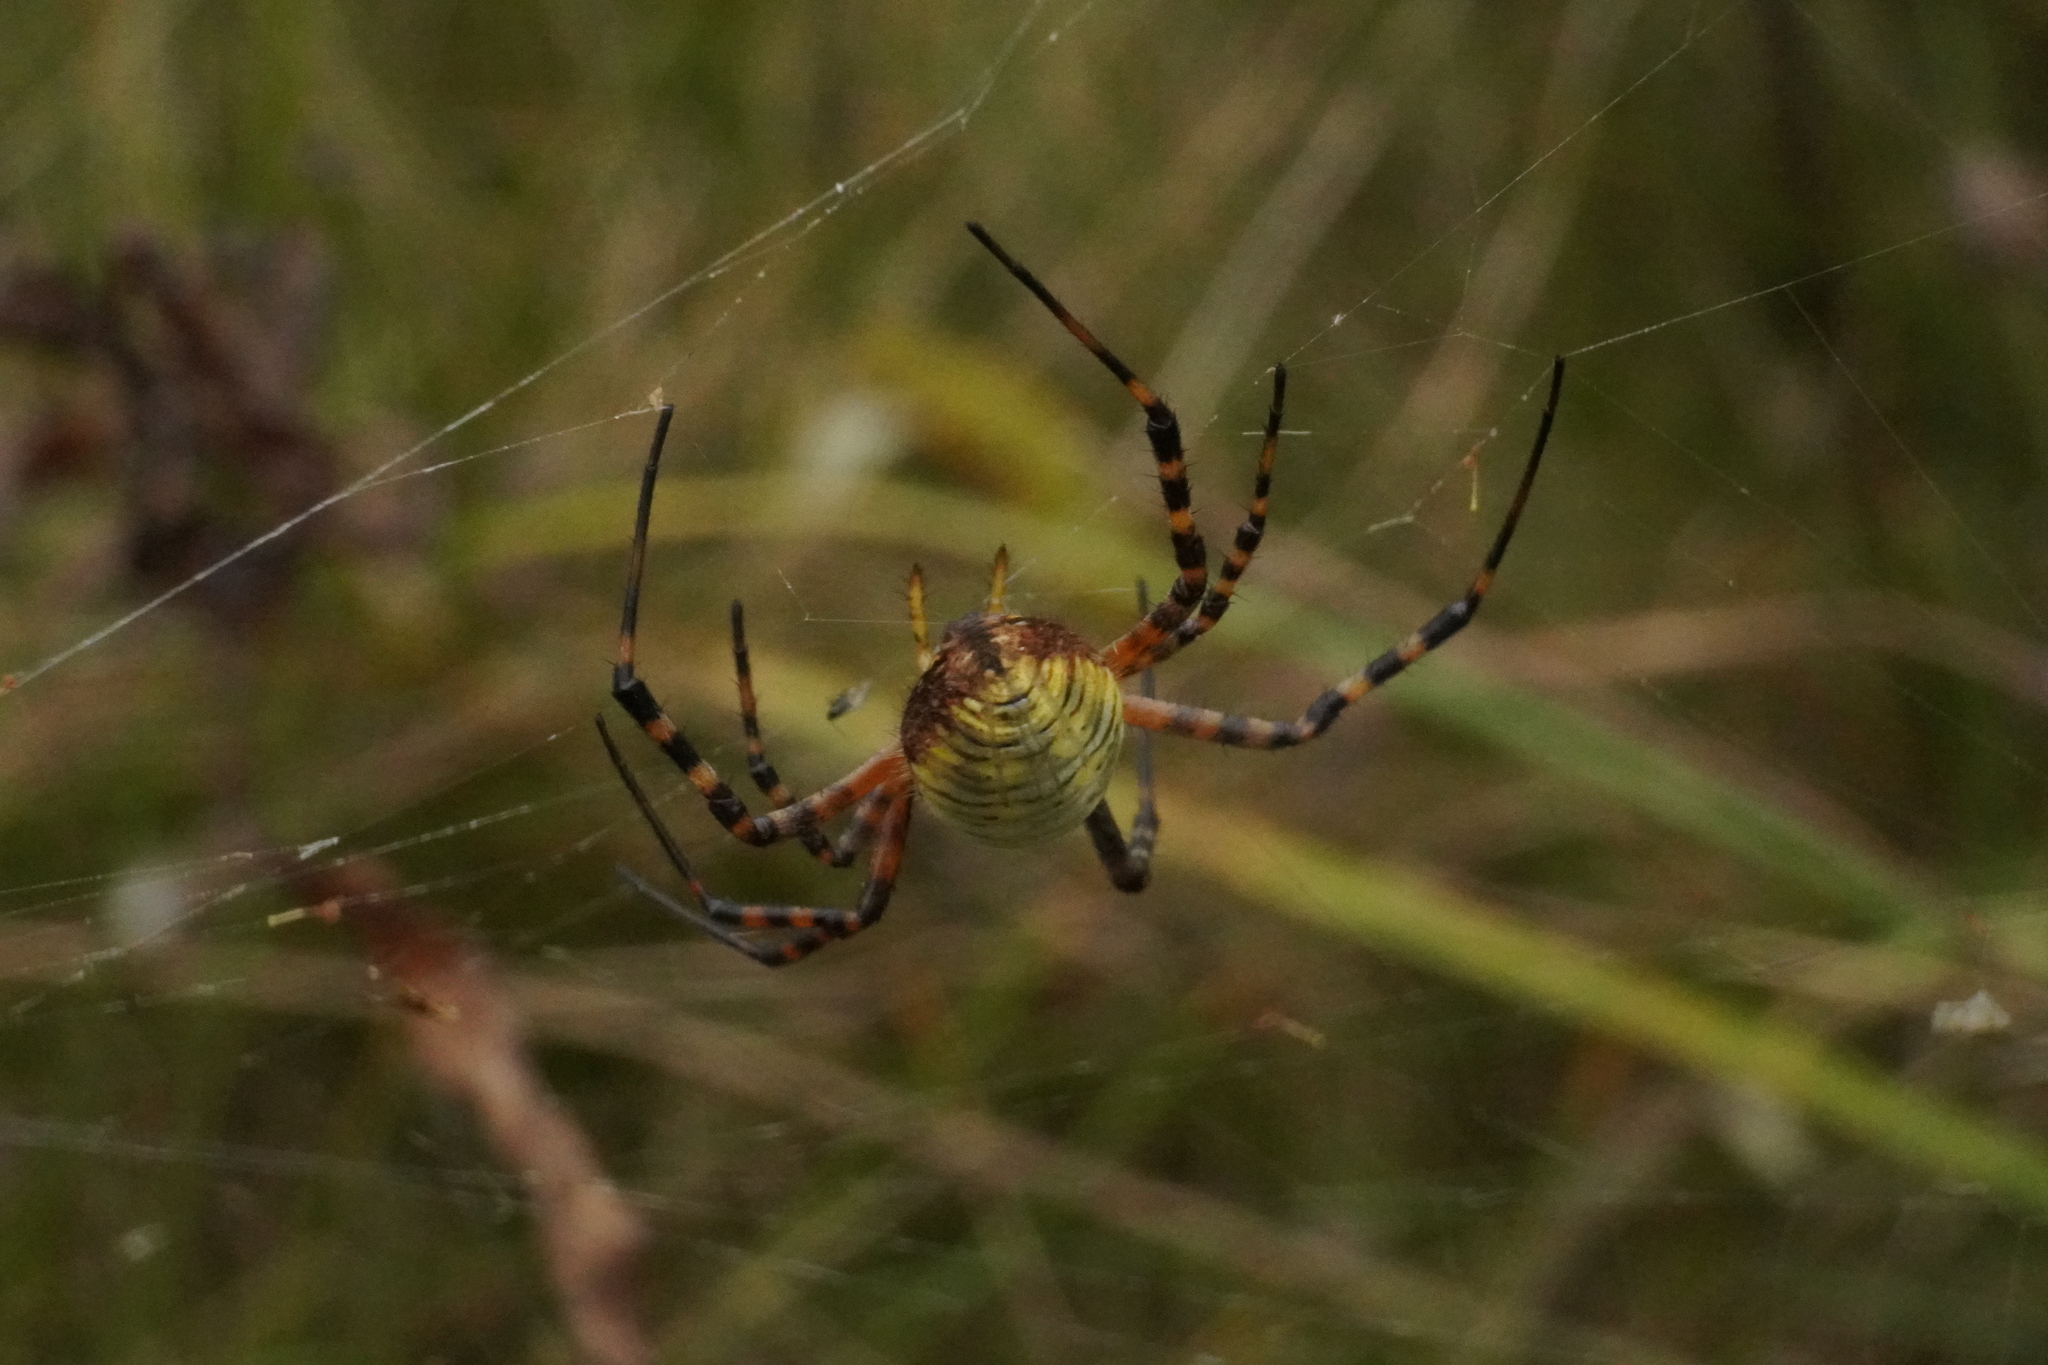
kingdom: Animalia
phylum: Arthropoda
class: Arachnida
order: Araneae
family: Araneidae
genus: Argiope
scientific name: Argiope trifasciata
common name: Banded garden spider
